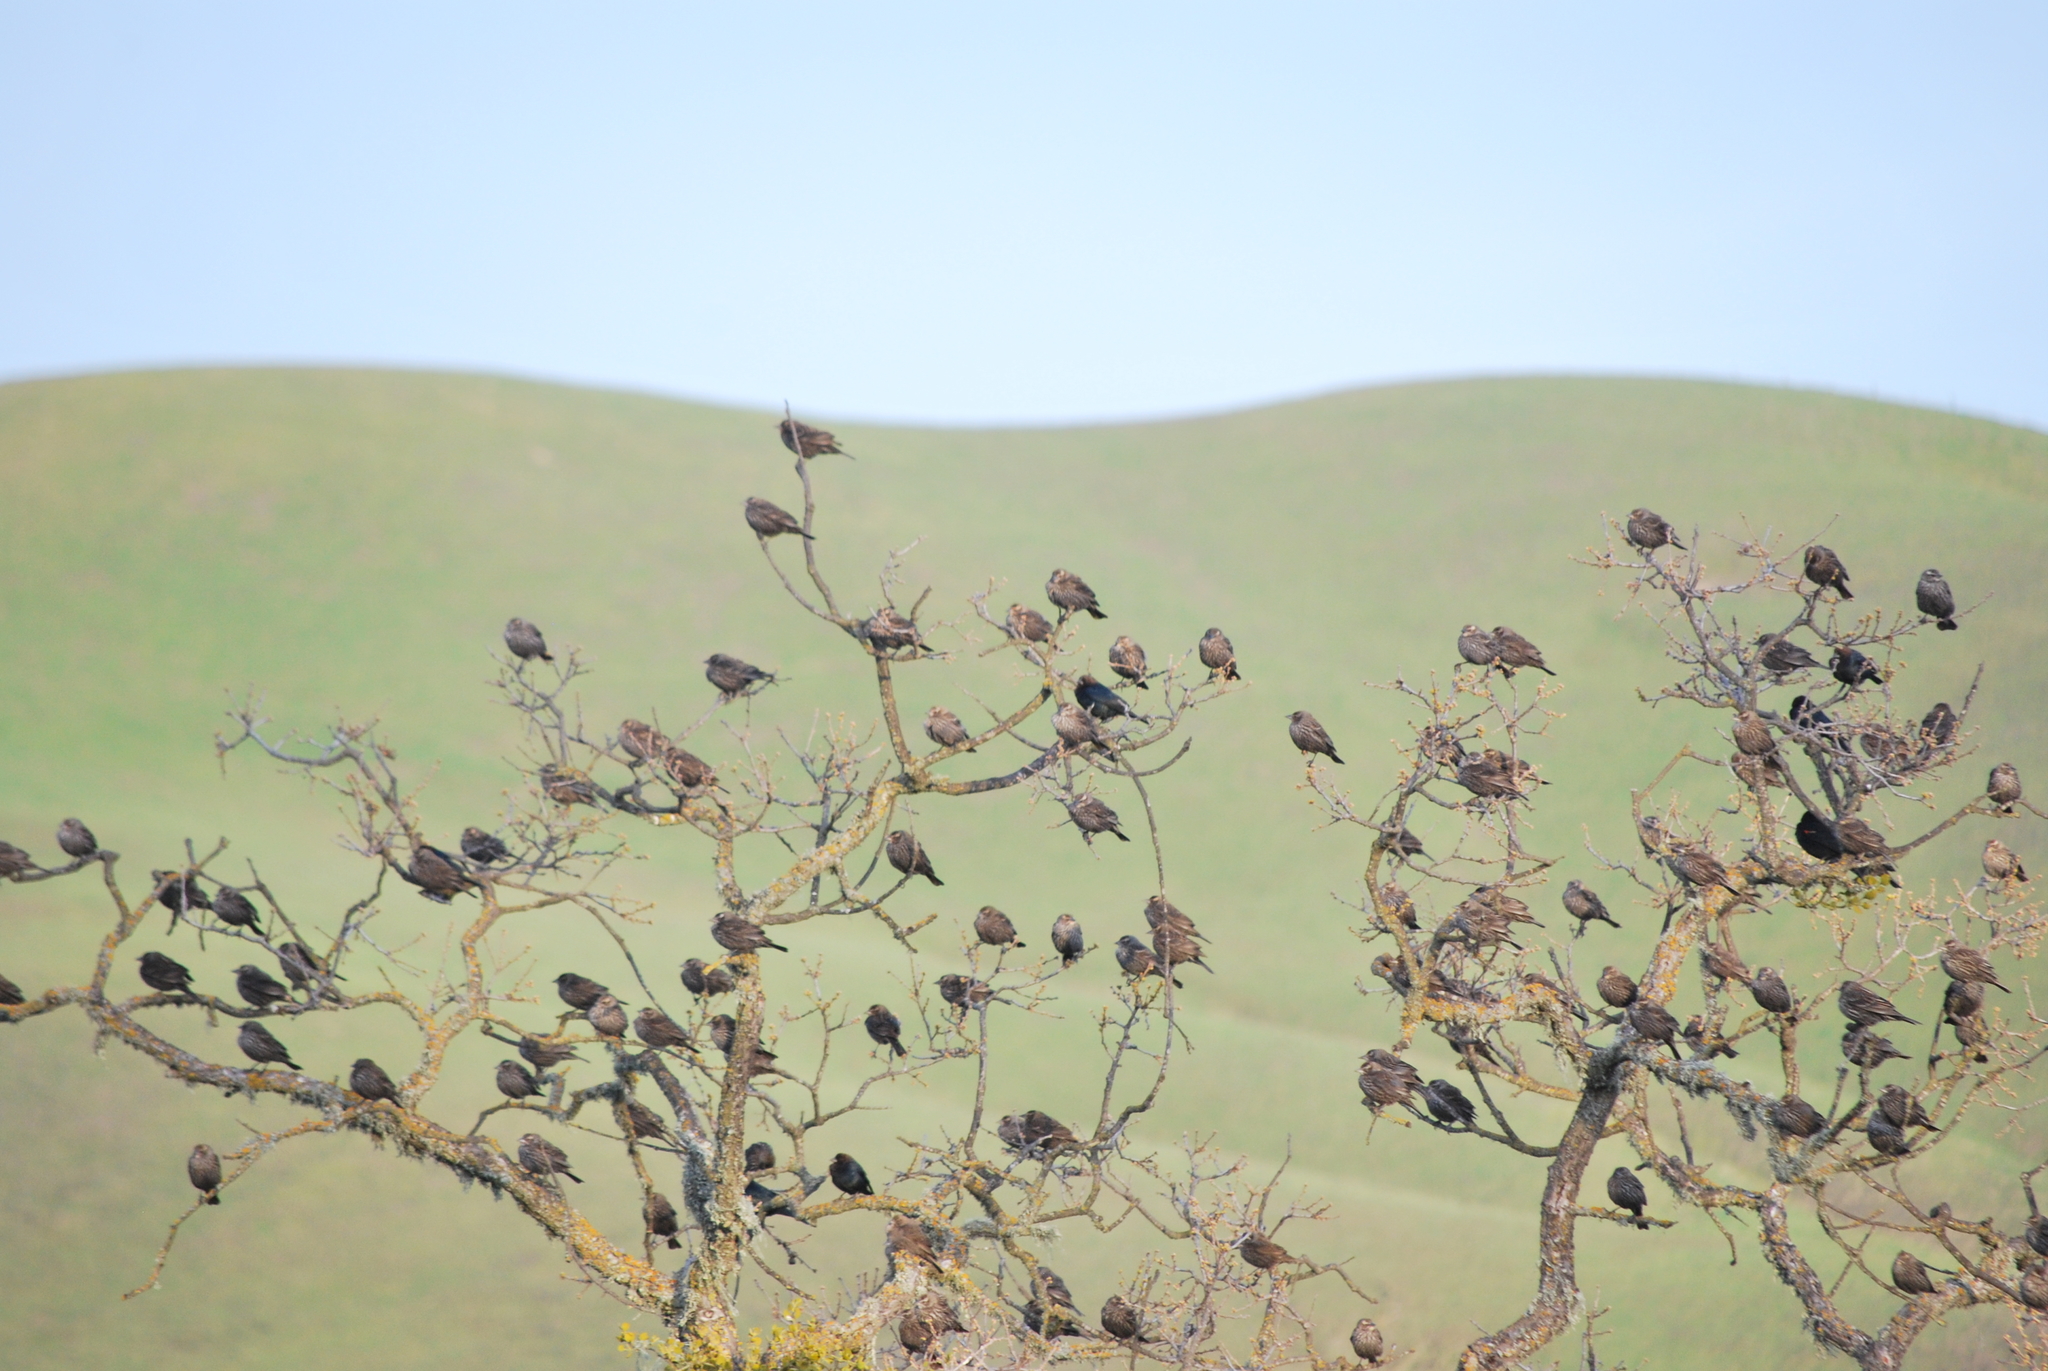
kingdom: Animalia
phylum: Chordata
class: Aves
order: Passeriformes
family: Icteridae
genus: Agelaius
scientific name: Agelaius phoeniceus
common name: Red-winged blackbird
